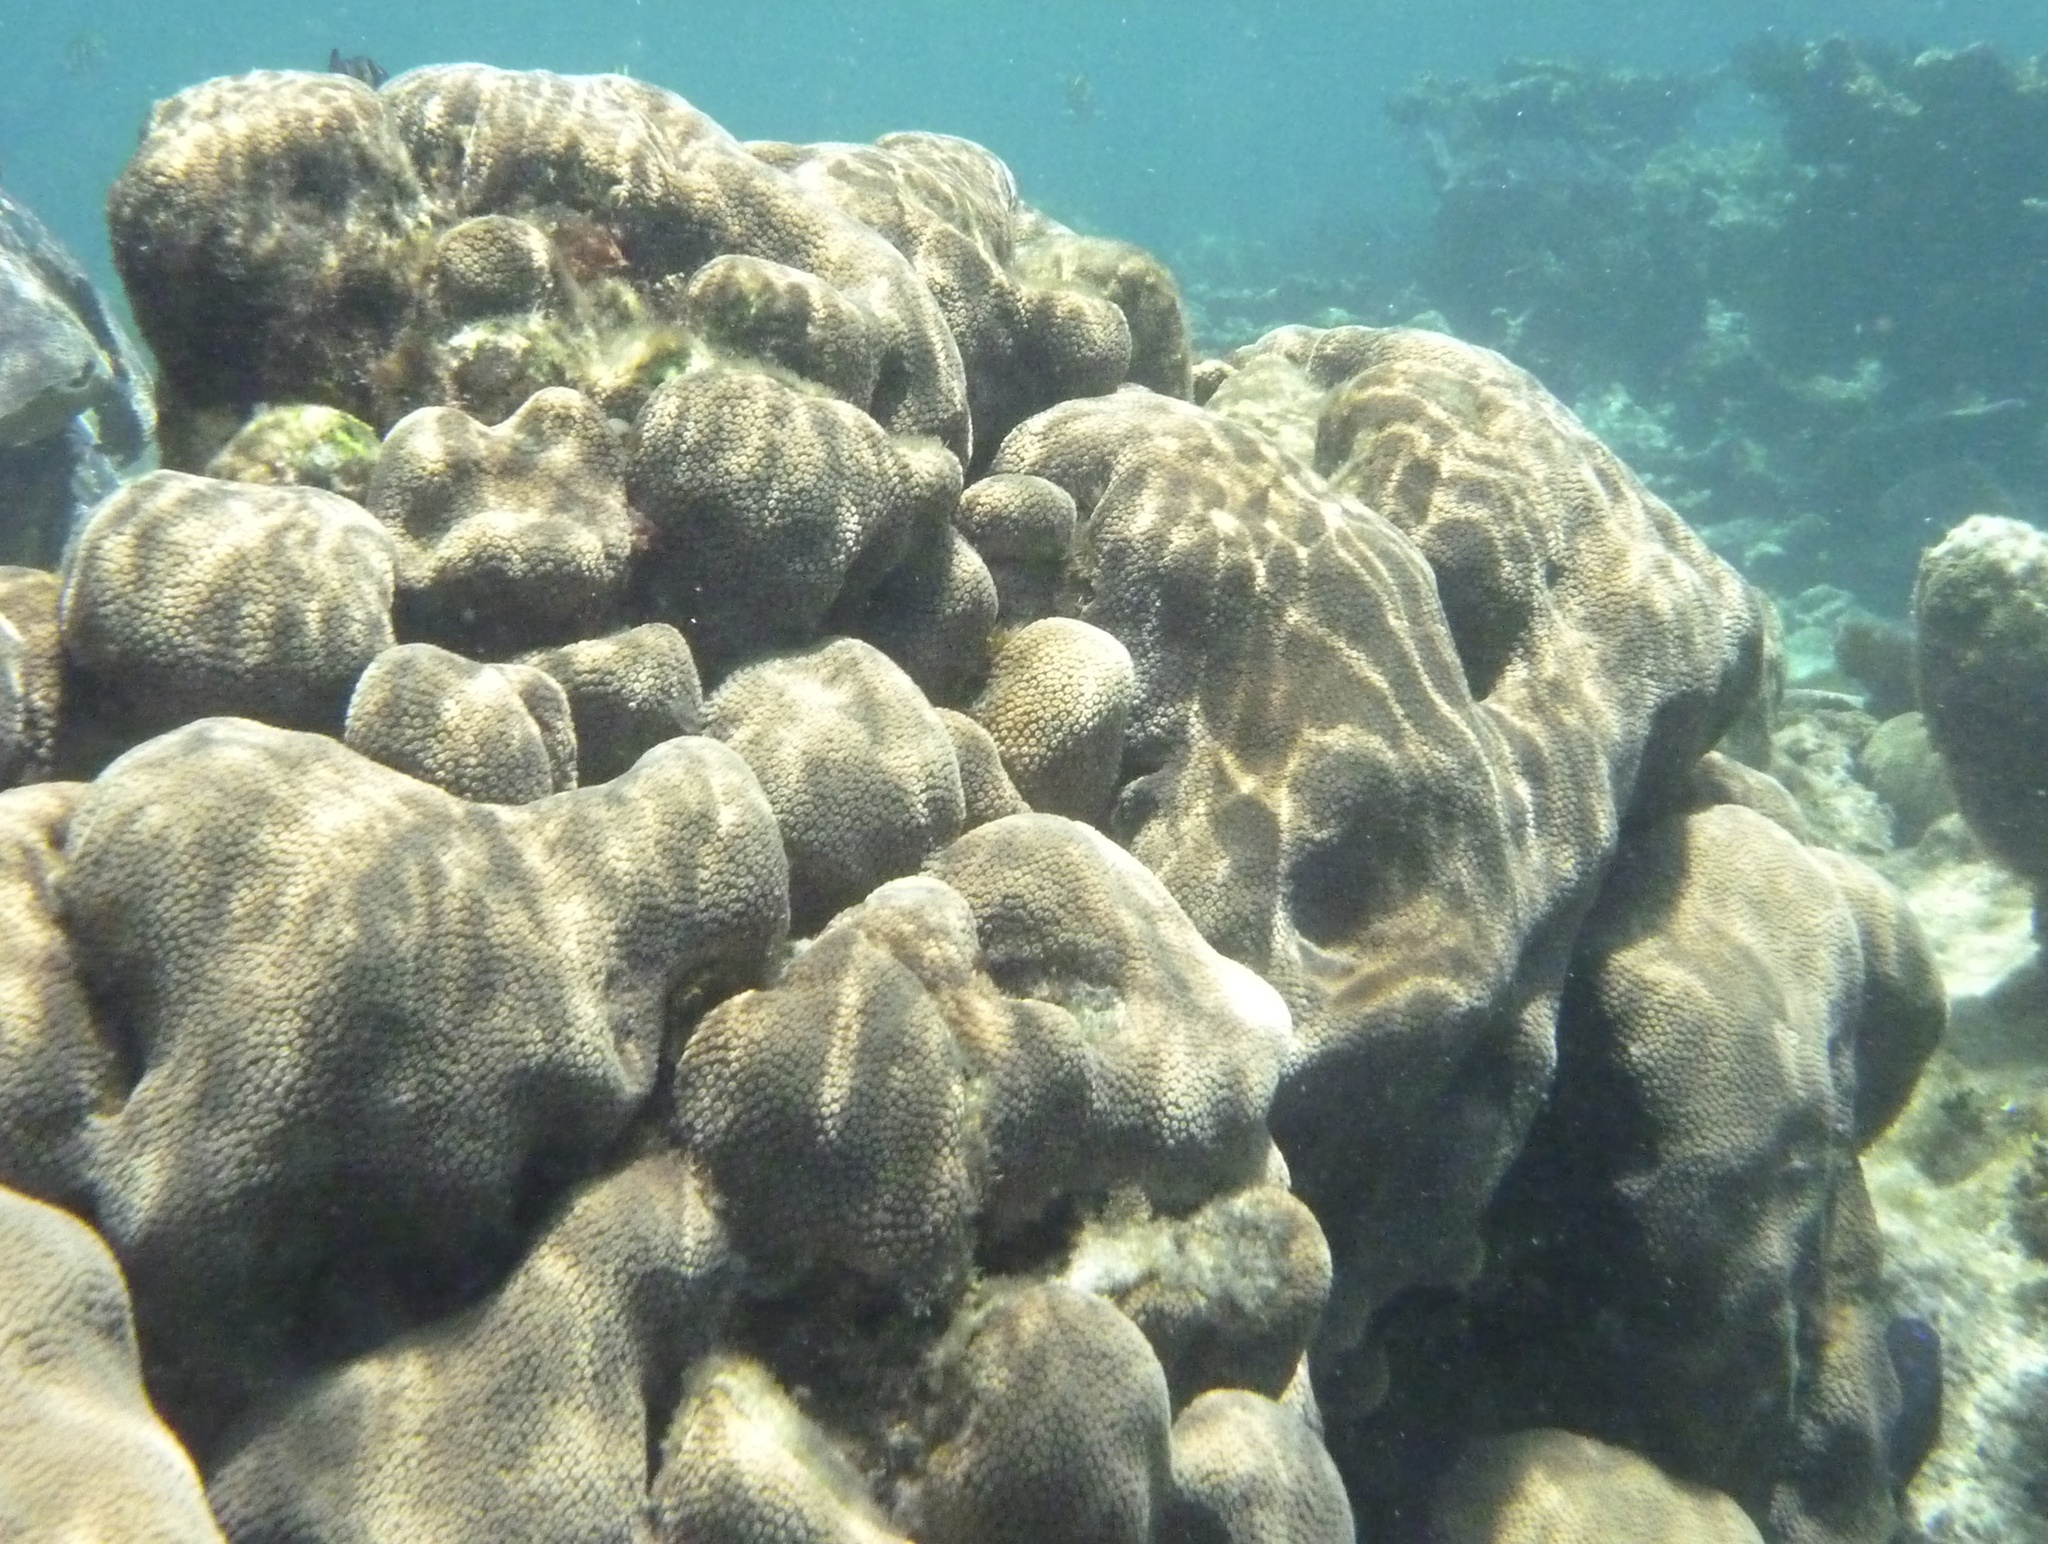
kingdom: Animalia
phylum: Cnidaria
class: Anthozoa
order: Scleractinia
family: Merulinidae
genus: Orbicella
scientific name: Orbicella annularis
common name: Boulder star coral
